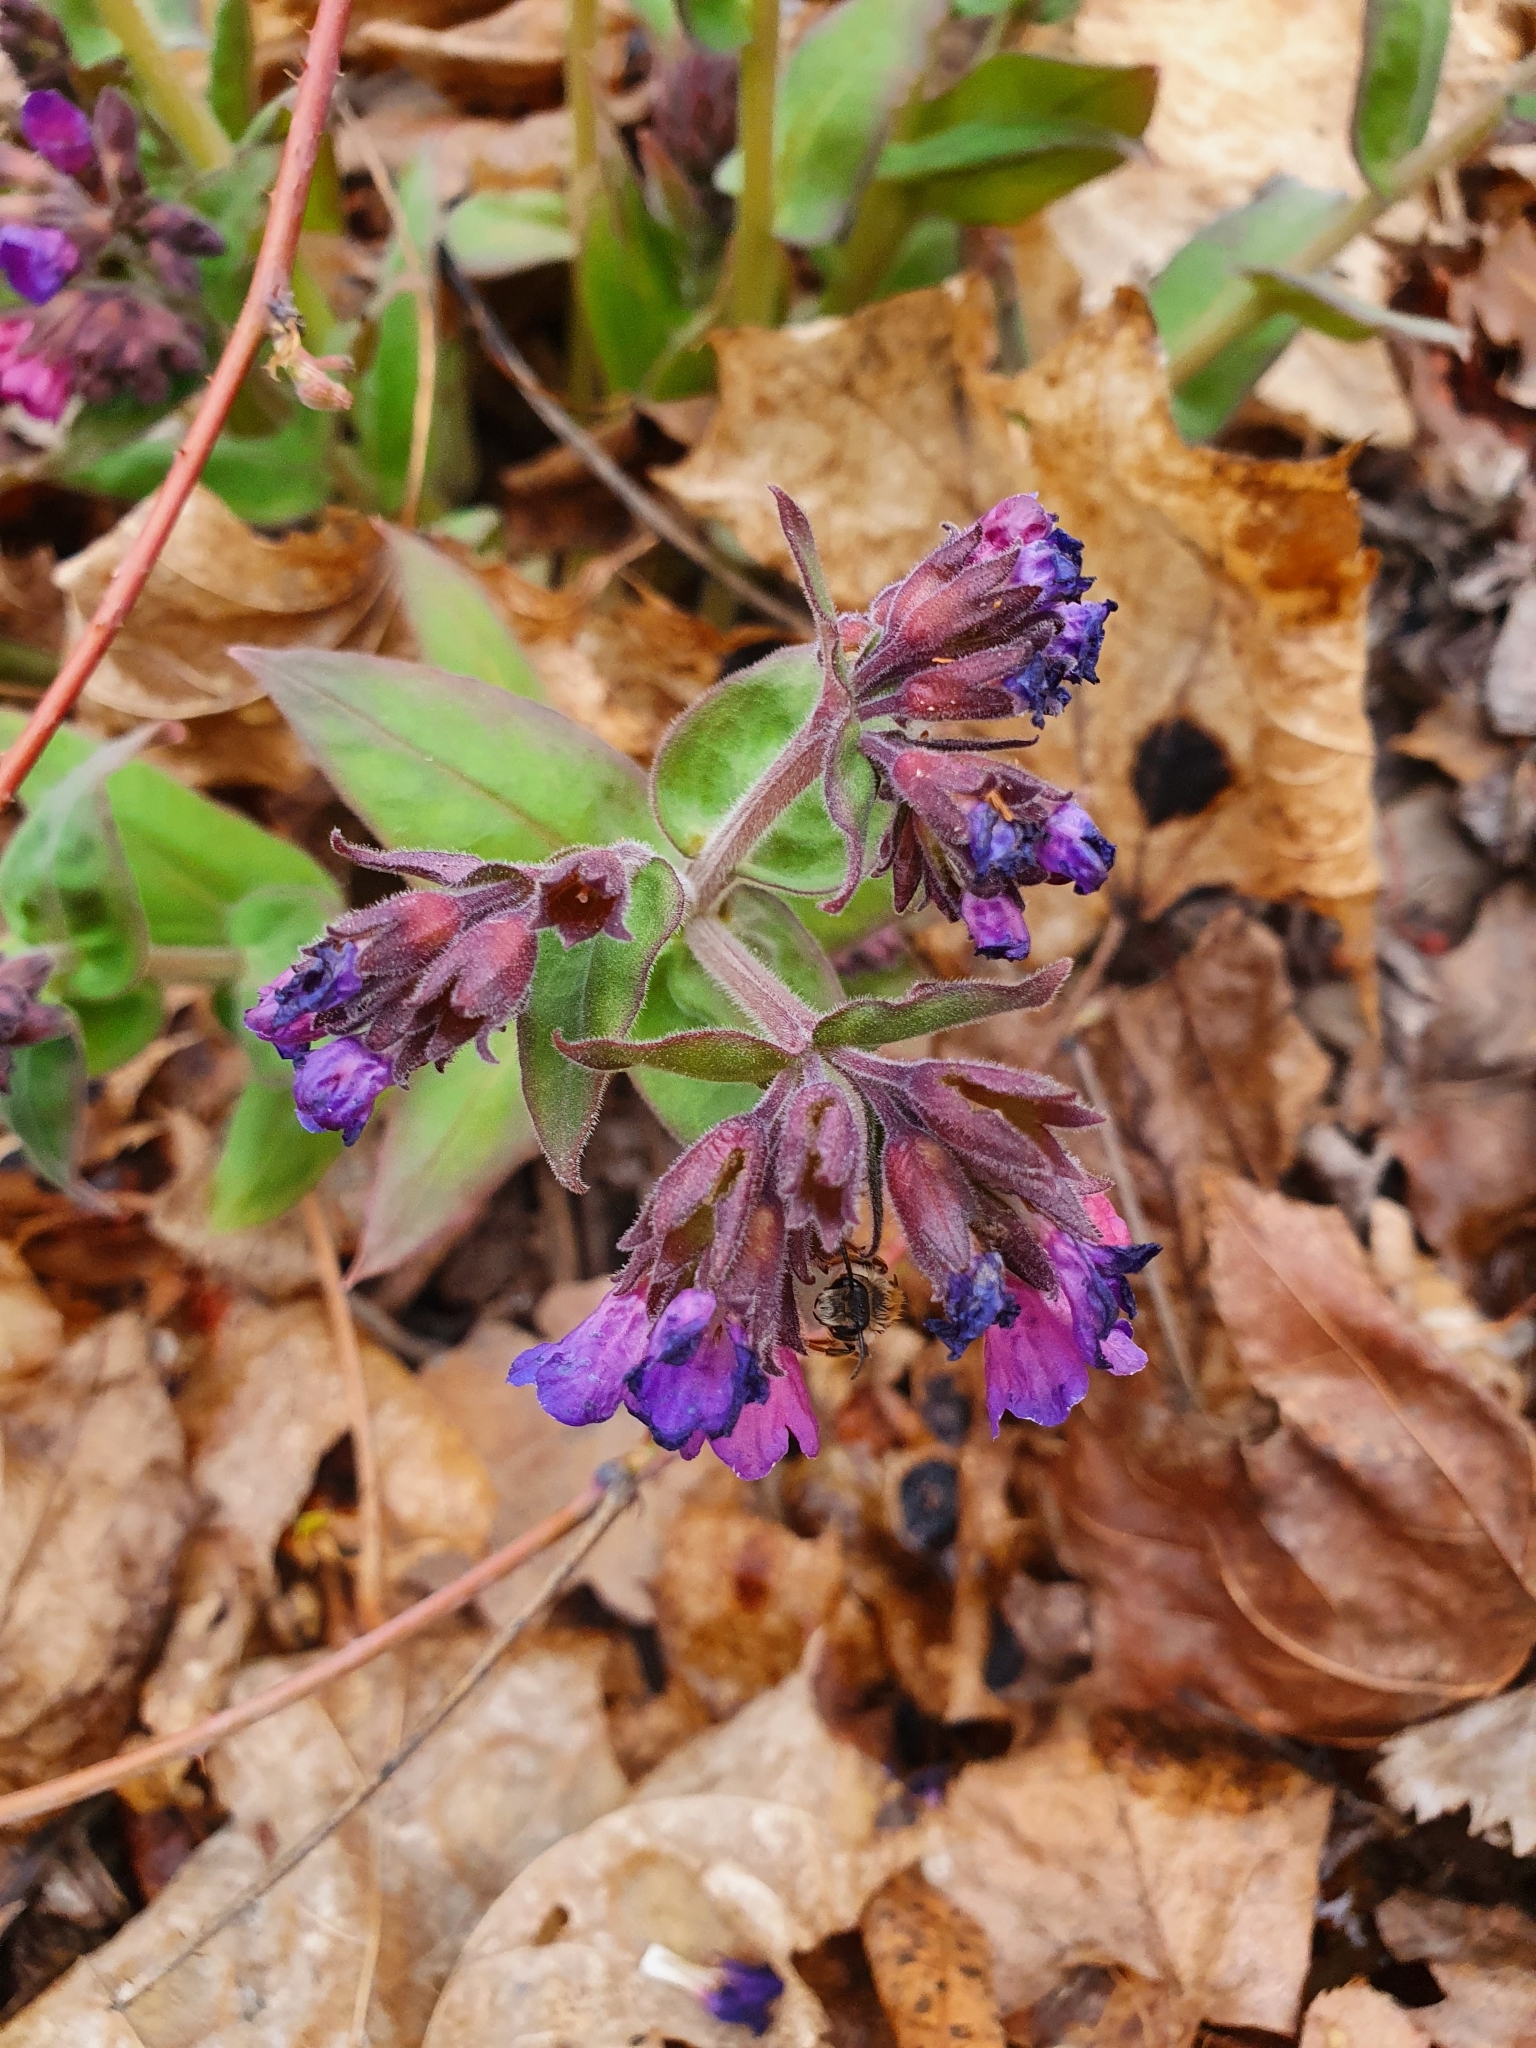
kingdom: Plantae
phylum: Tracheophyta
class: Magnoliopsida
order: Boraginales
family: Boraginaceae
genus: Pulmonaria
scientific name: Pulmonaria mollis
